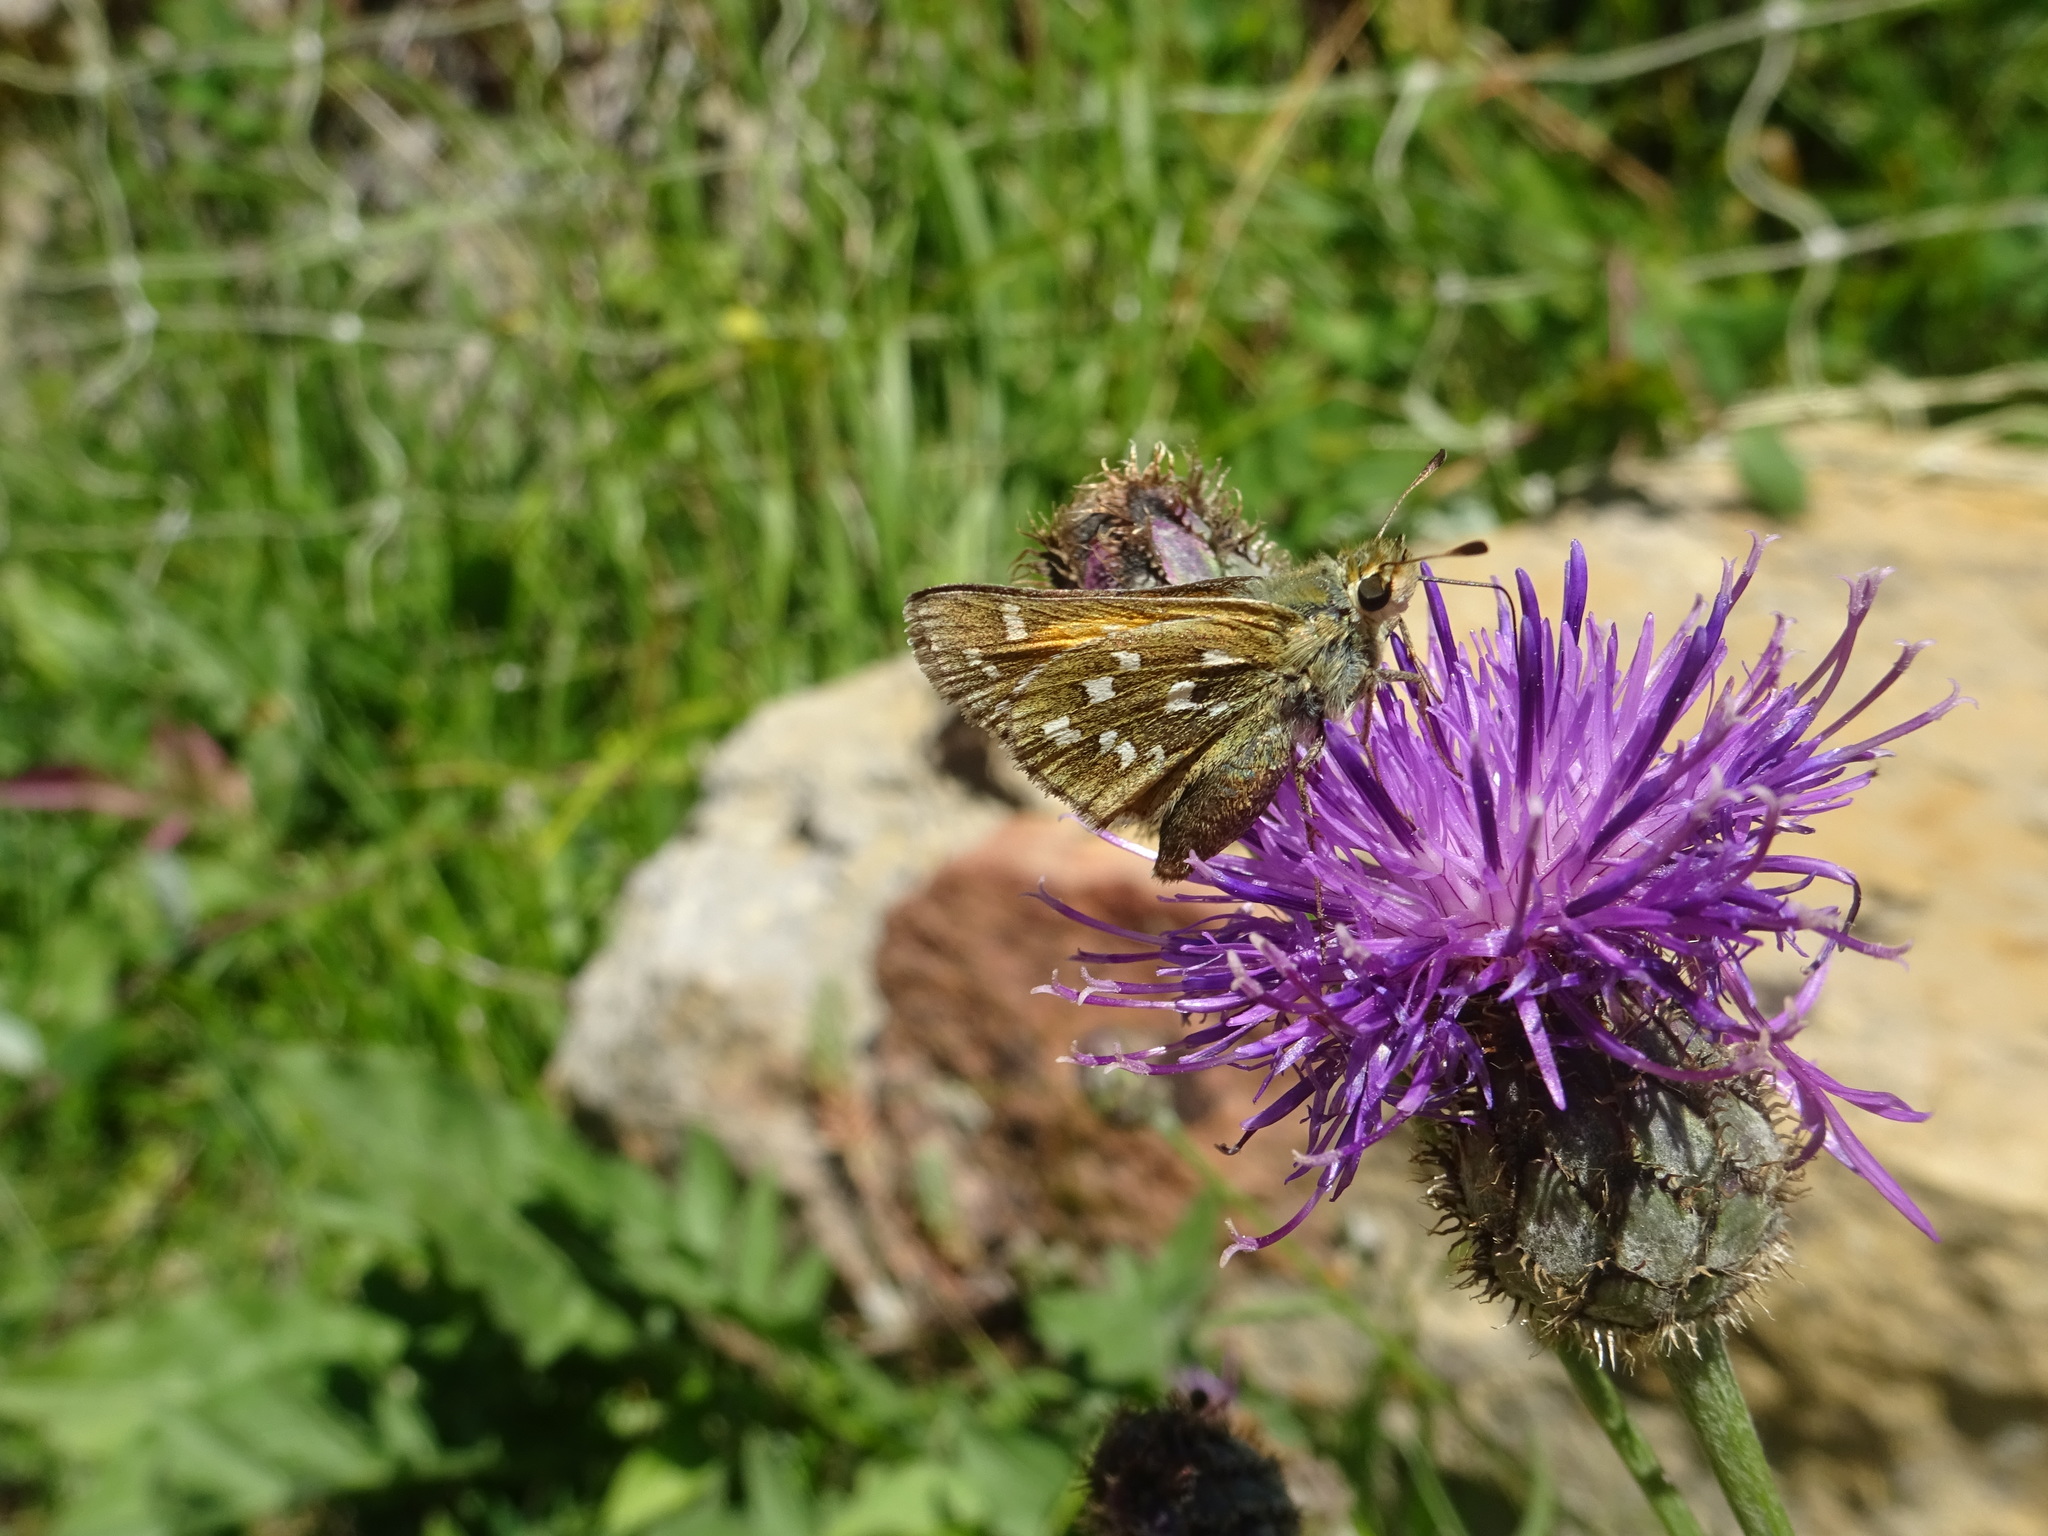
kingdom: Animalia
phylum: Arthropoda
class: Insecta
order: Lepidoptera
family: Hesperiidae
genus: Hesperia
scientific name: Hesperia comma
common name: Common branded skipper
